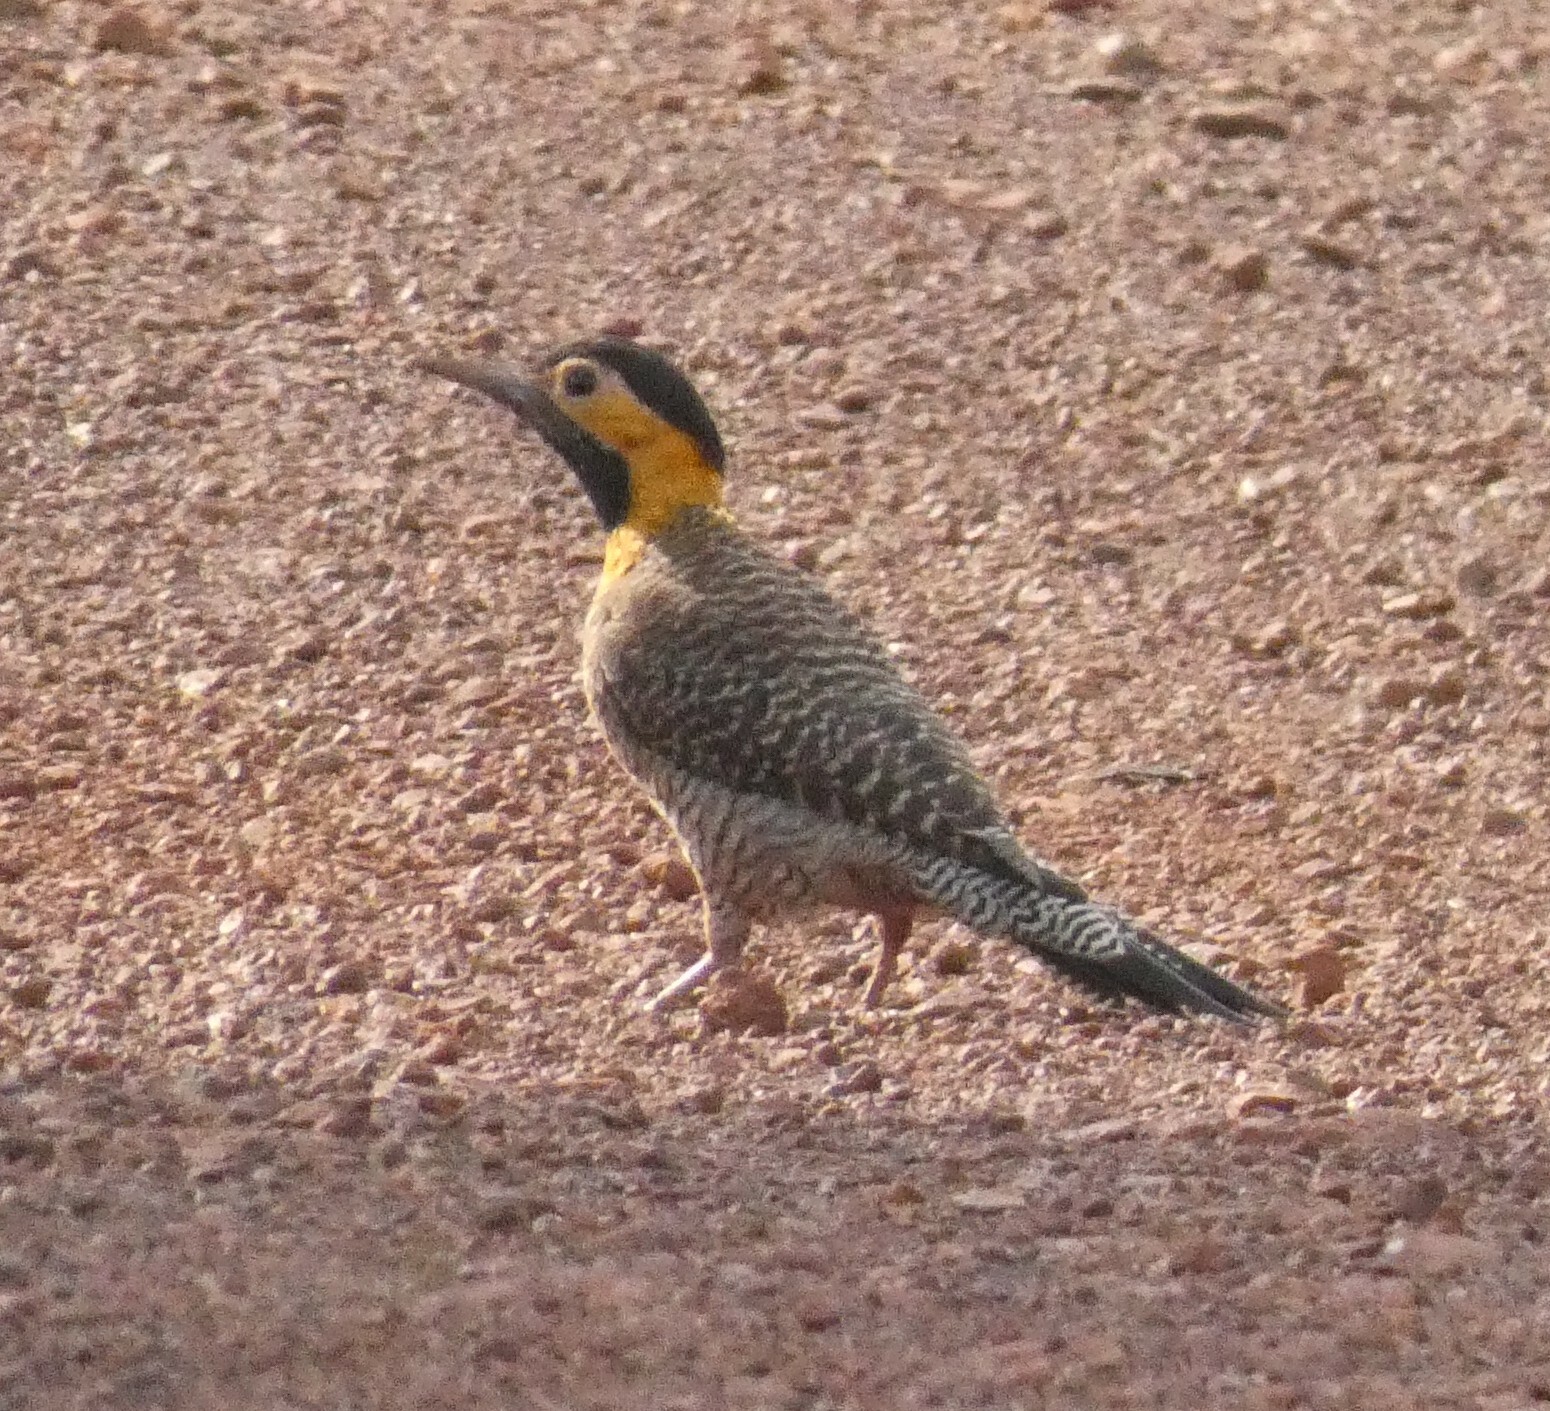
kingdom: Animalia
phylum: Chordata
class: Aves
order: Piciformes
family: Picidae
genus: Colaptes
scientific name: Colaptes campestris
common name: Campo flicker
